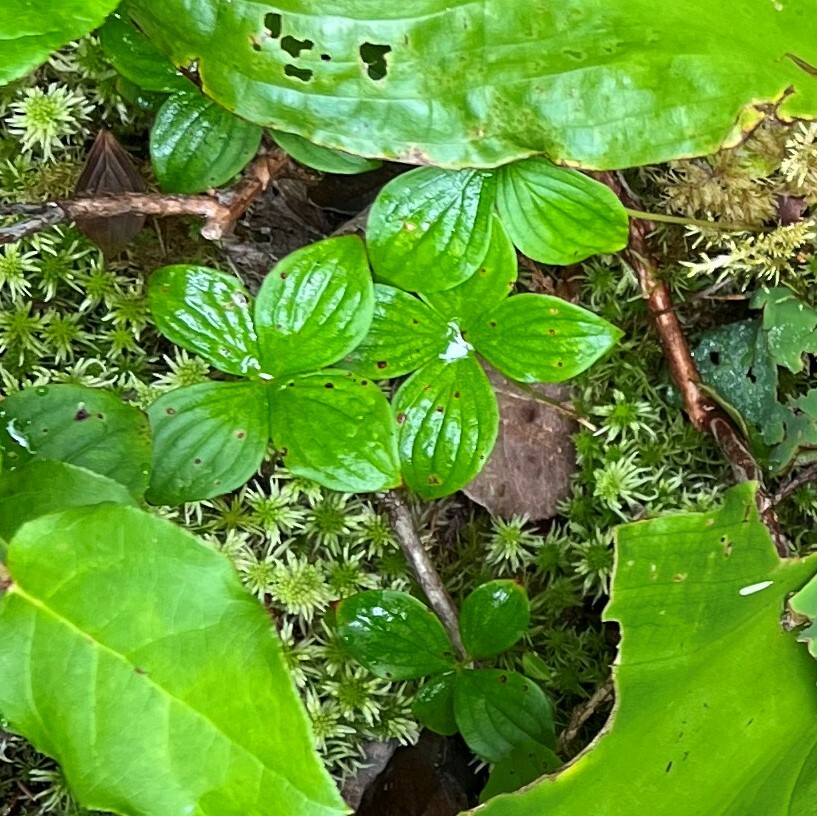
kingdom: Plantae
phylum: Tracheophyta
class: Magnoliopsida
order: Cornales
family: Cornaceae
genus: Cornus
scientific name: Cornus unalaschkensis
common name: Alaska bunchberry
